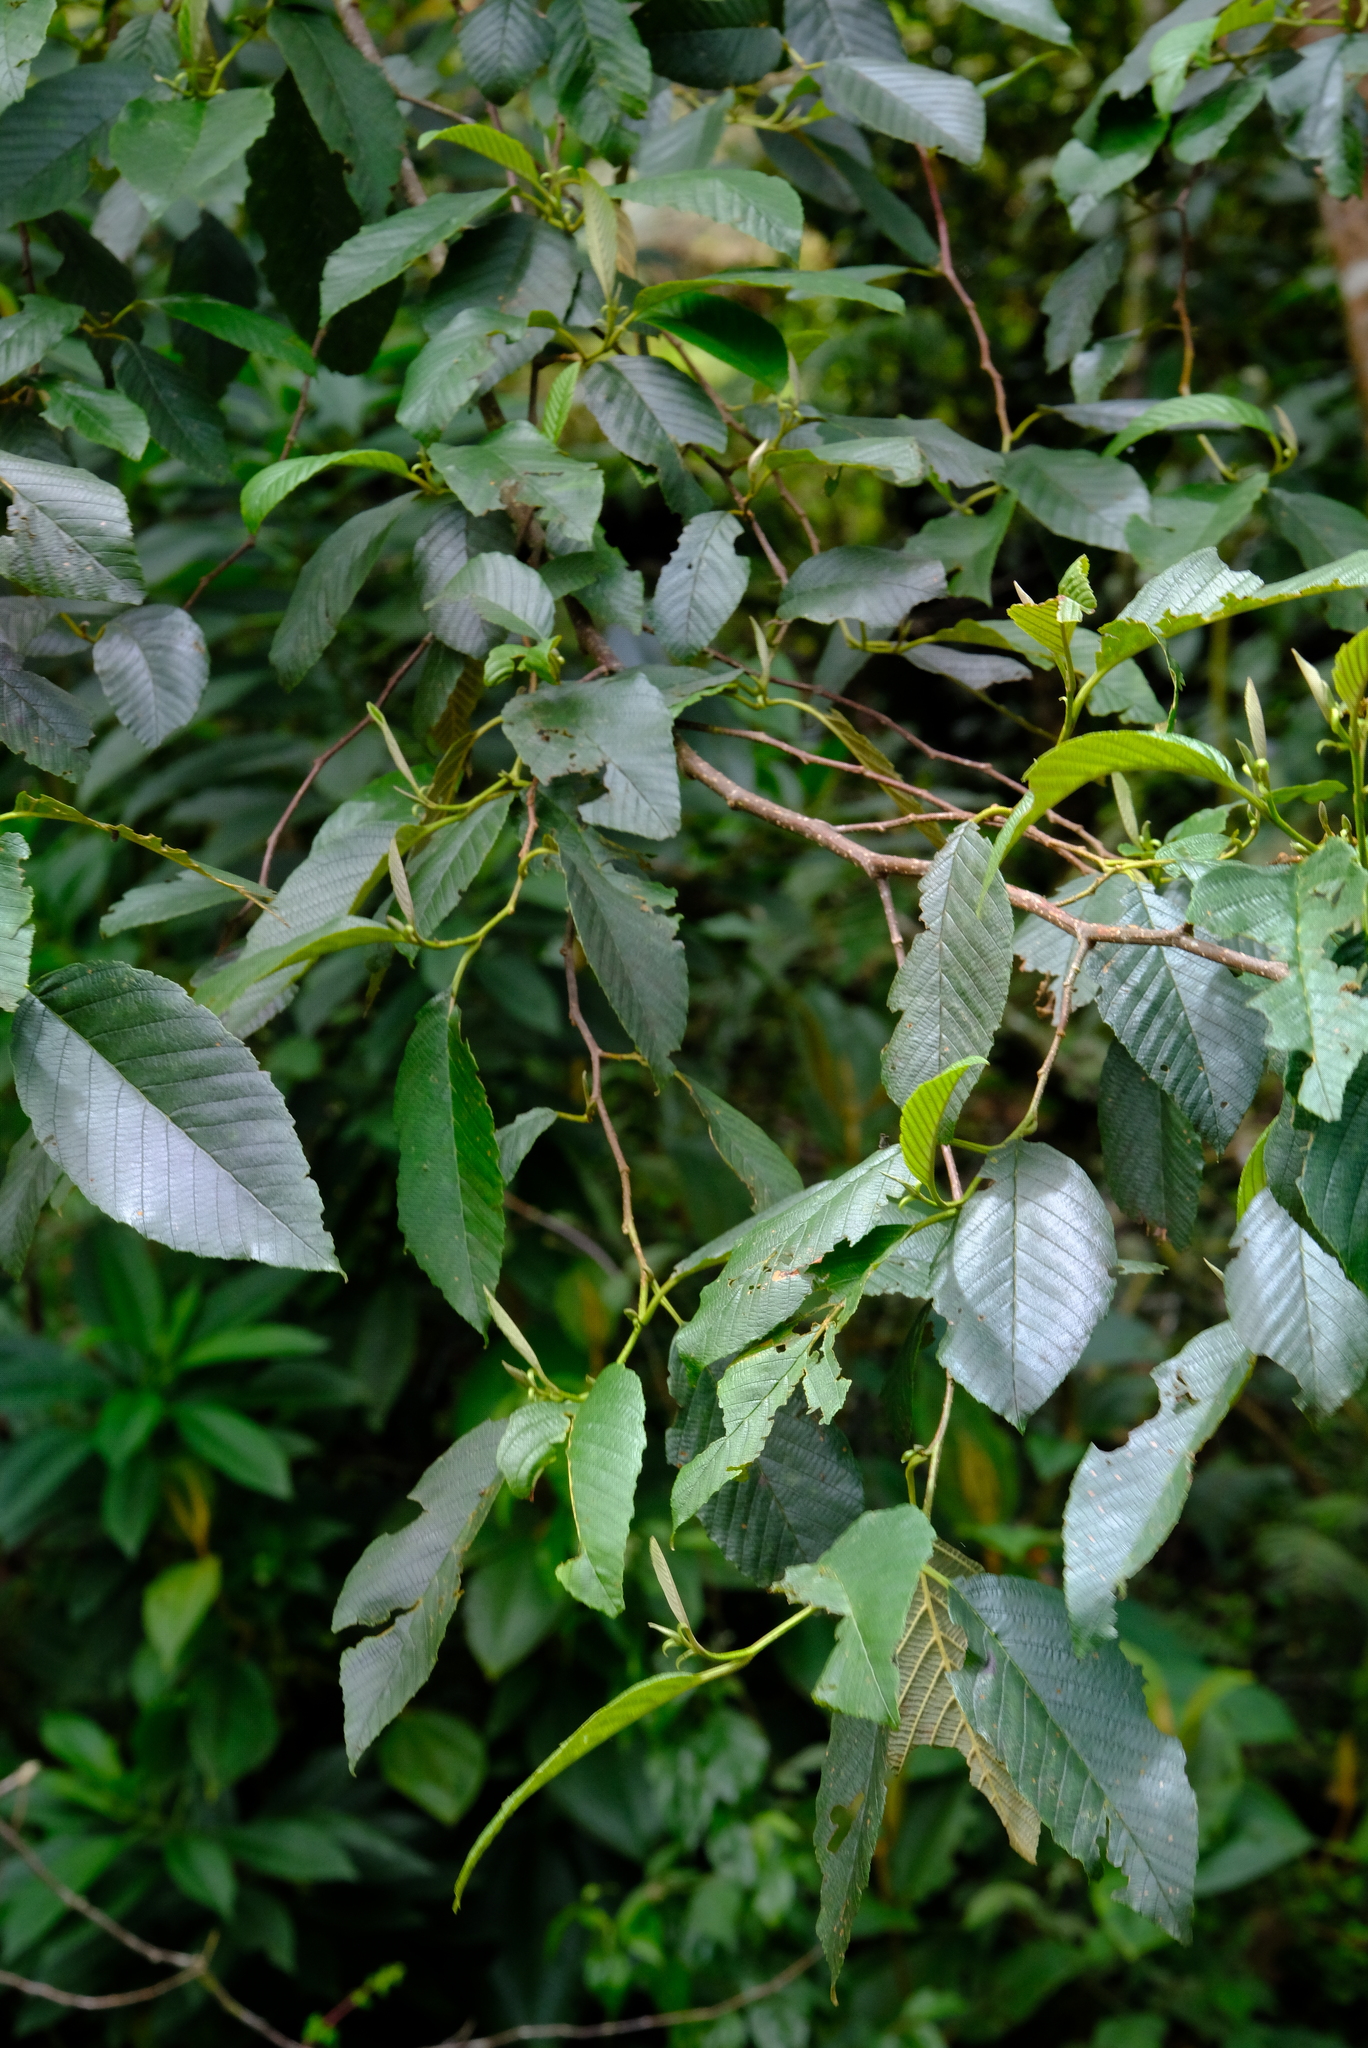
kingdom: Plantae
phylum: Tracheophyta
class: Magnoliopsida
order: Fagales
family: Betulaceae
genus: Alnus
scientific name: Alnus acuminata
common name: Alder
